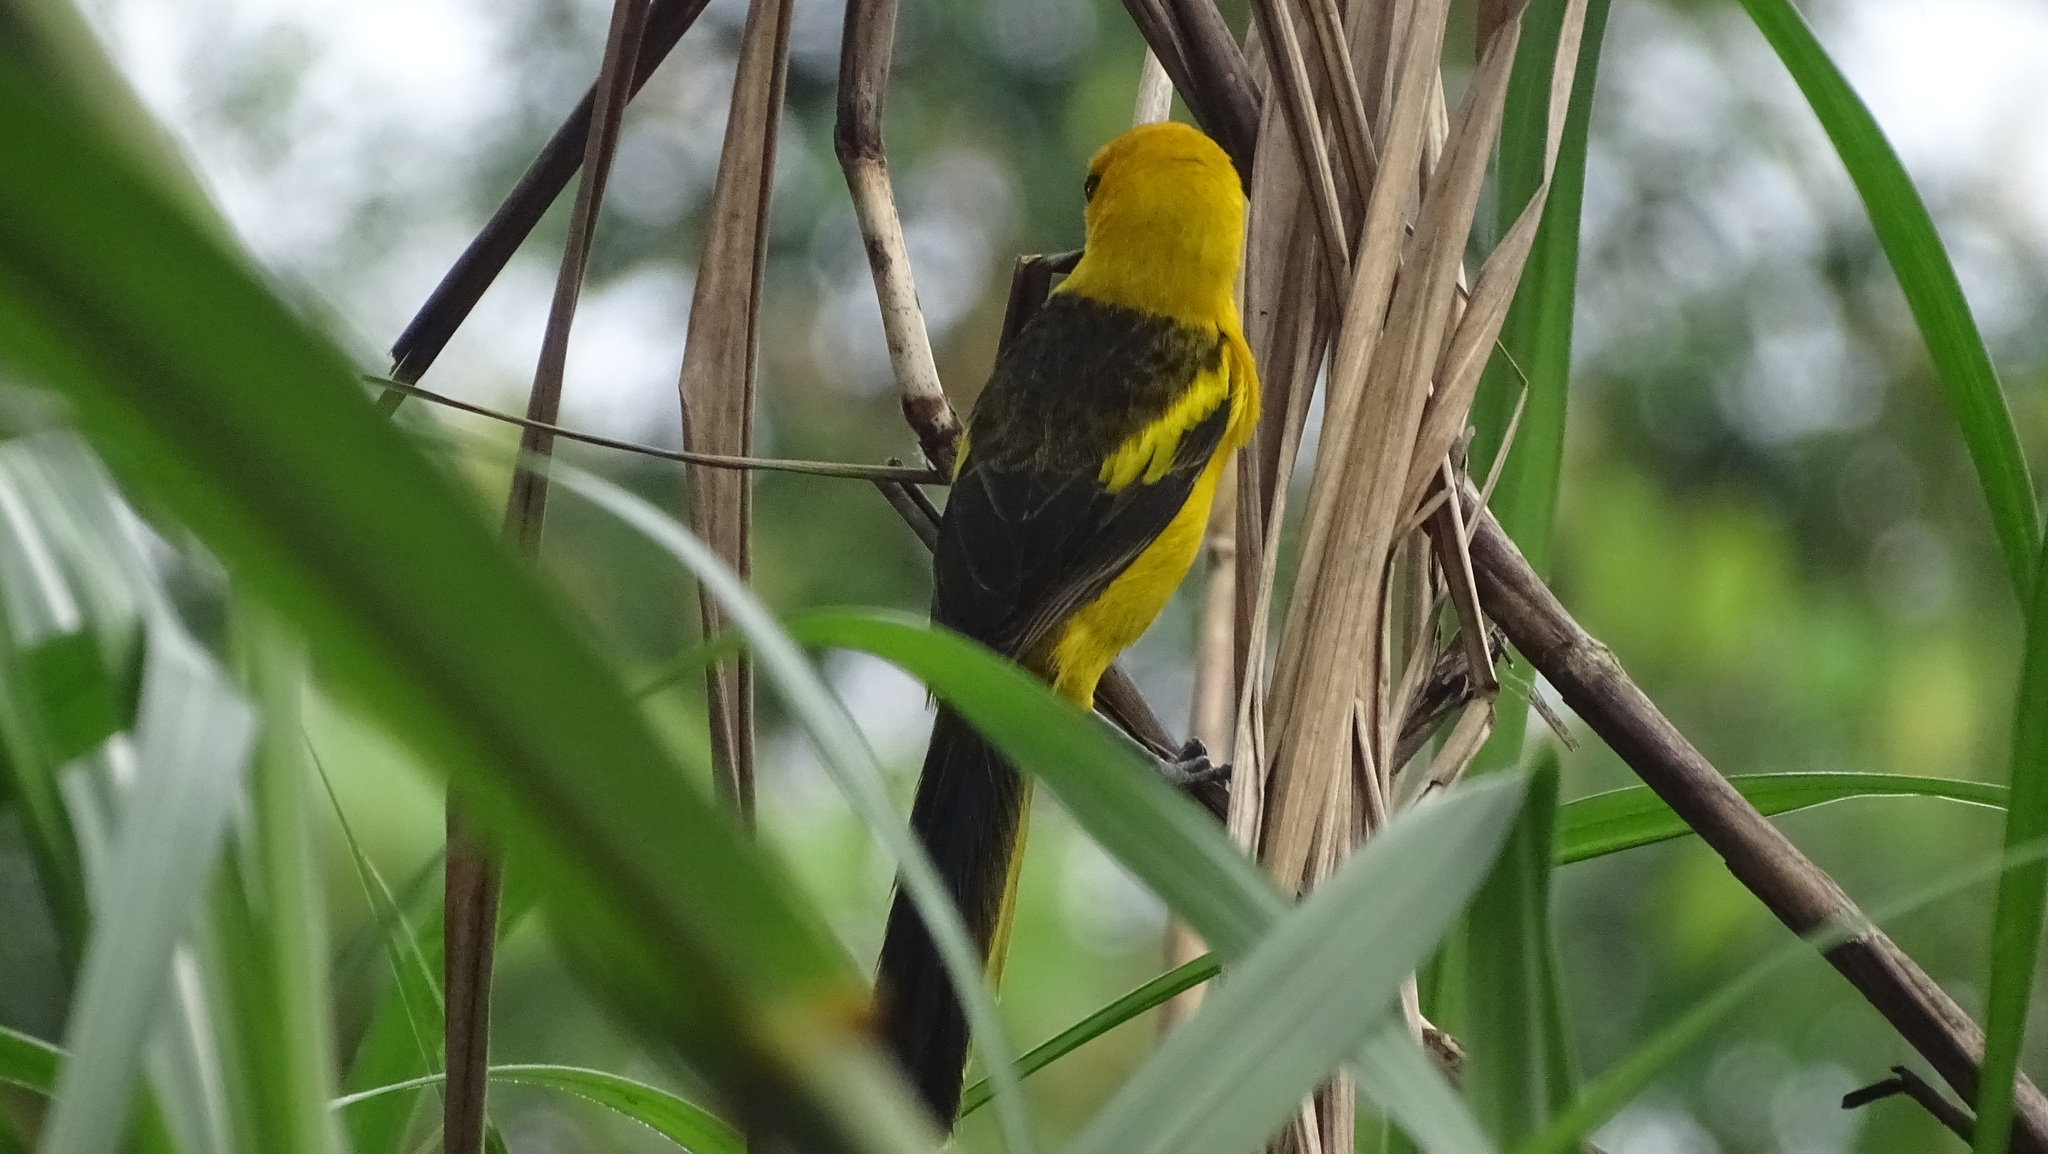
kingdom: Animalia
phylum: Chordata
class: Aves
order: Passeriformes
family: Icteridae
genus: Icterus
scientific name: Icterus mesomelas
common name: Yellow-tailed oriole
